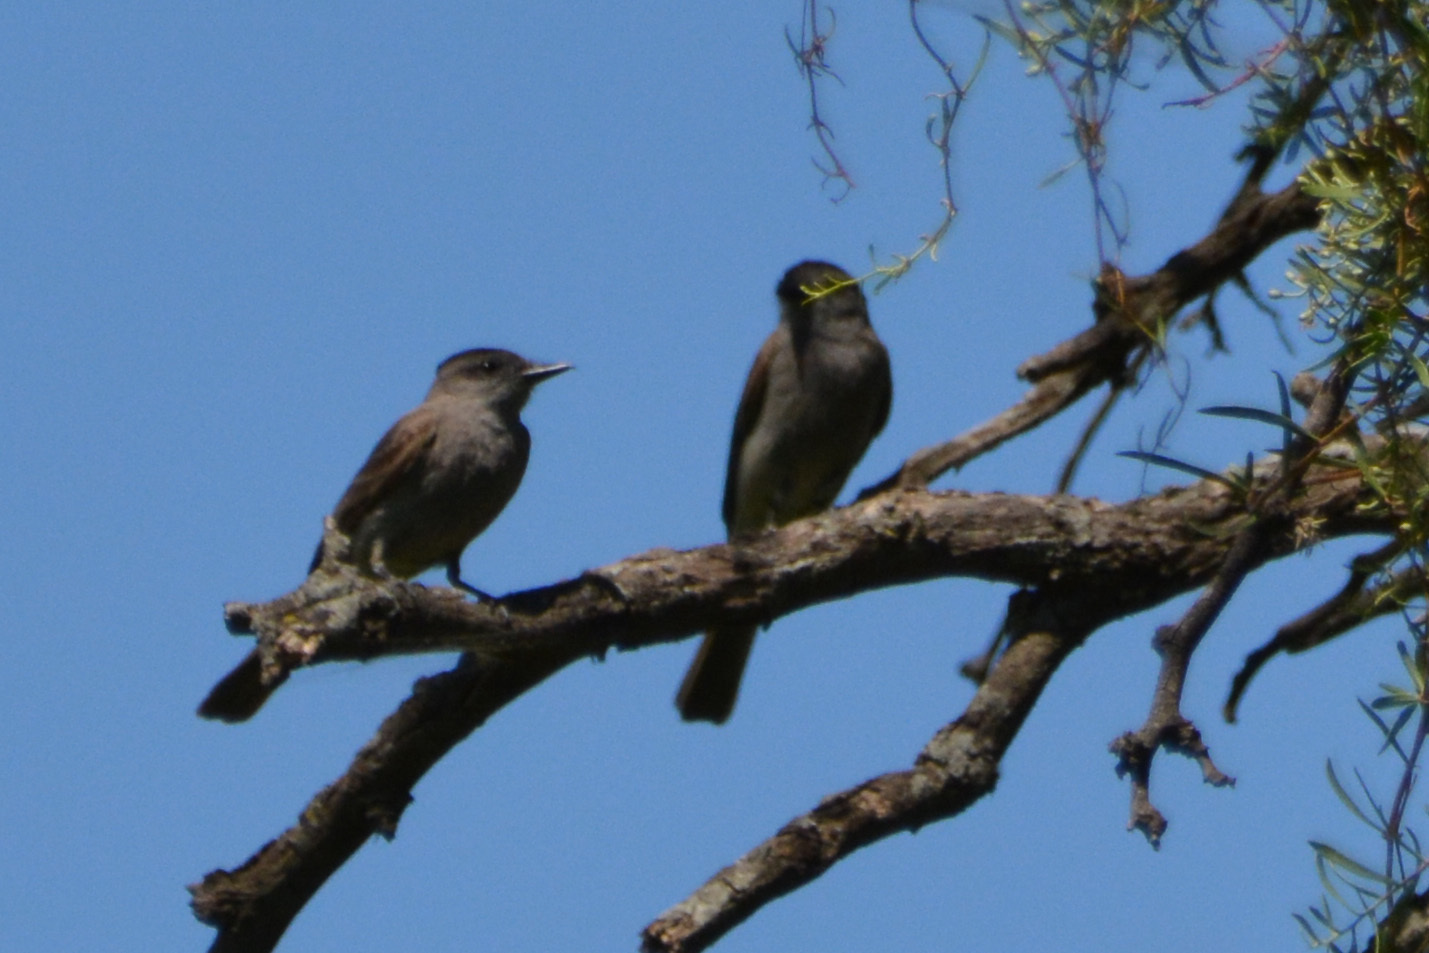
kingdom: Animalia
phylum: Chordata
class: Aves
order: Passeriformes
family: Tyrannidae
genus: Empidonomus
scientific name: Empidonomus aurantioatrocristatus
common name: Crowned slaty flycatcher
